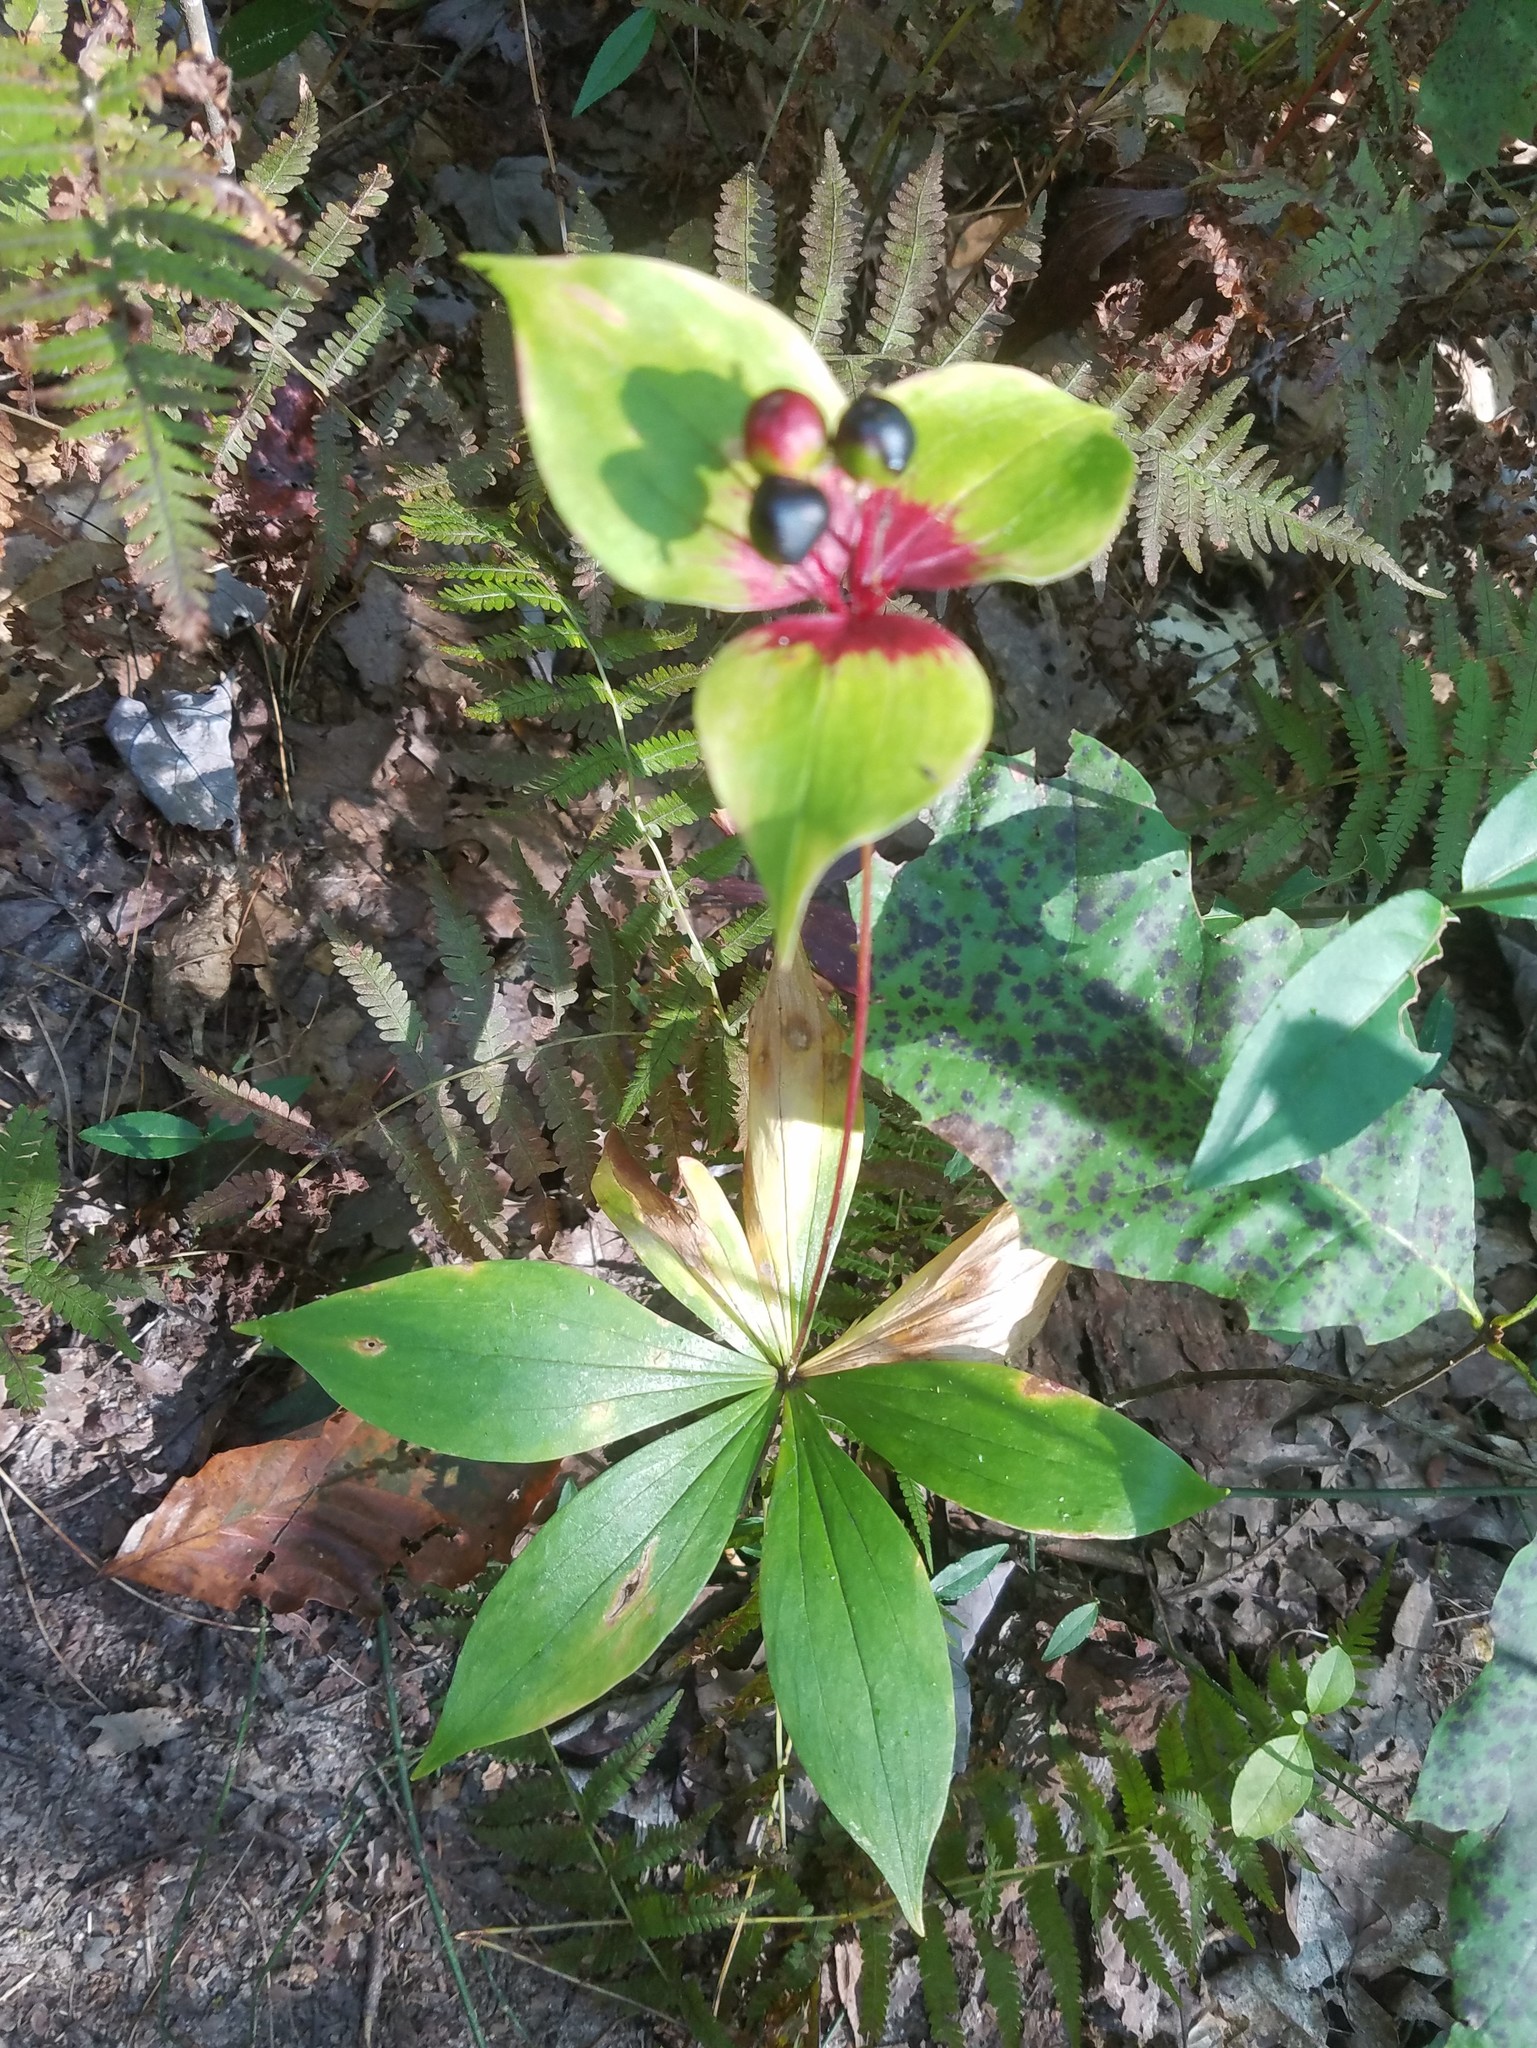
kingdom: Plantae
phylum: Tracheophyta
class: Liliopsida
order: Liliales
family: Liliaceae
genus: Medeola
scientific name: Medeola virginiana
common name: Indian cucumber-root
